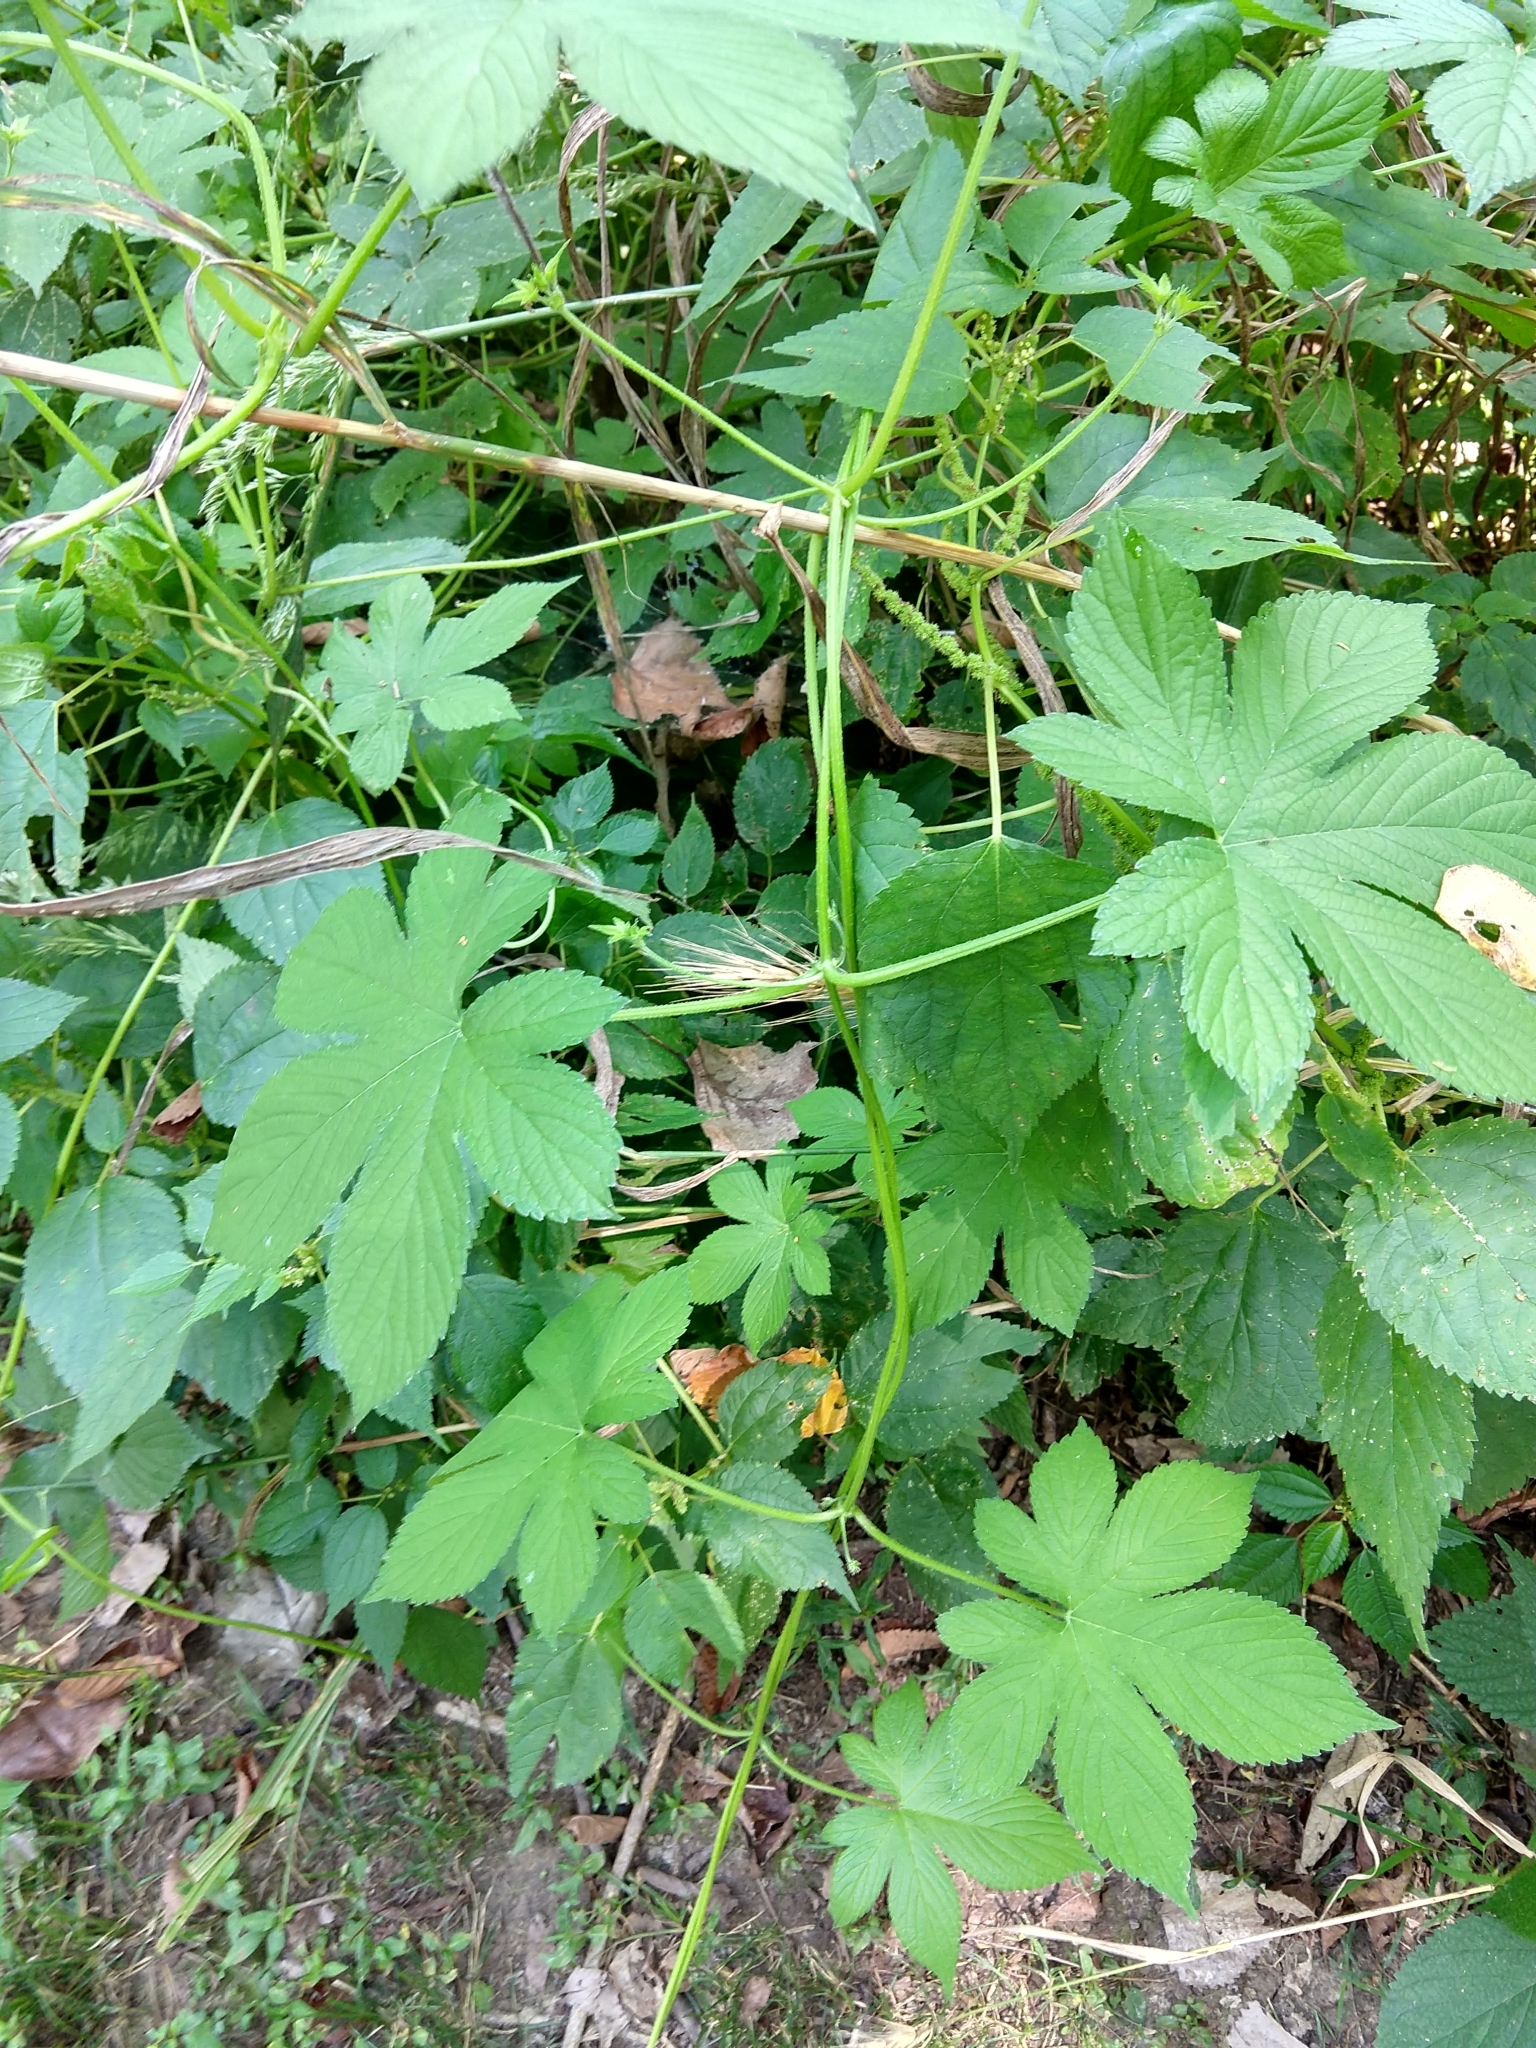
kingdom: Plantae
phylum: Tracheophyta
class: Magnoliopsida
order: Rosales
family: Cannabaceae
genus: Humulus
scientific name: Humulus scandens
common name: Japanese hop
